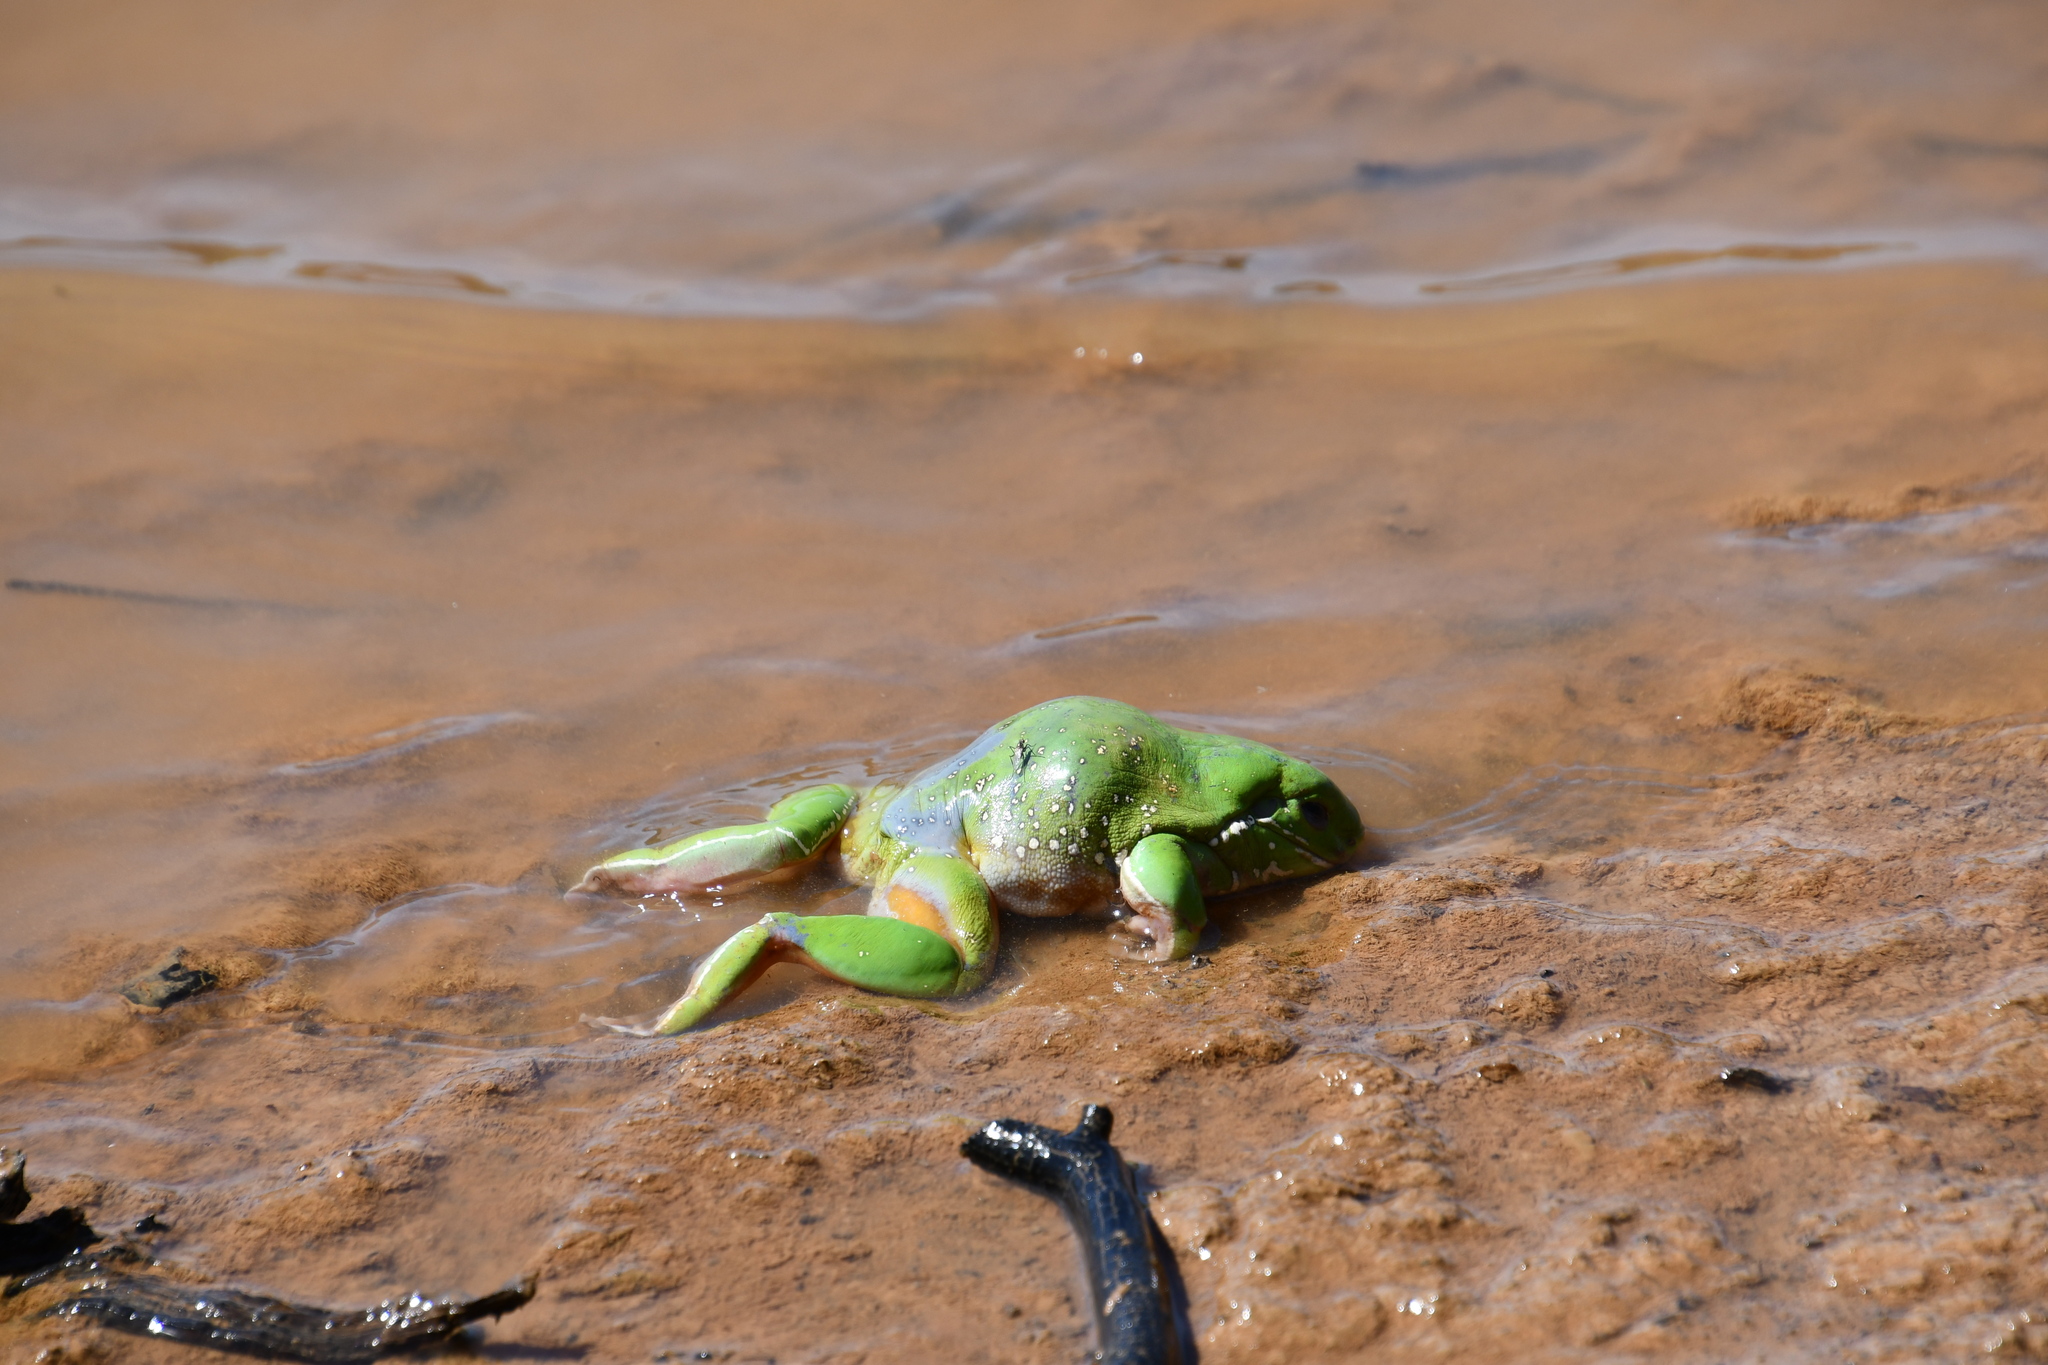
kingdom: Animalia
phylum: Chordata
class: Amphibia
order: Anura
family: Pelodryadidae
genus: Ranoidea
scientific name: Ranoidea caerulea
